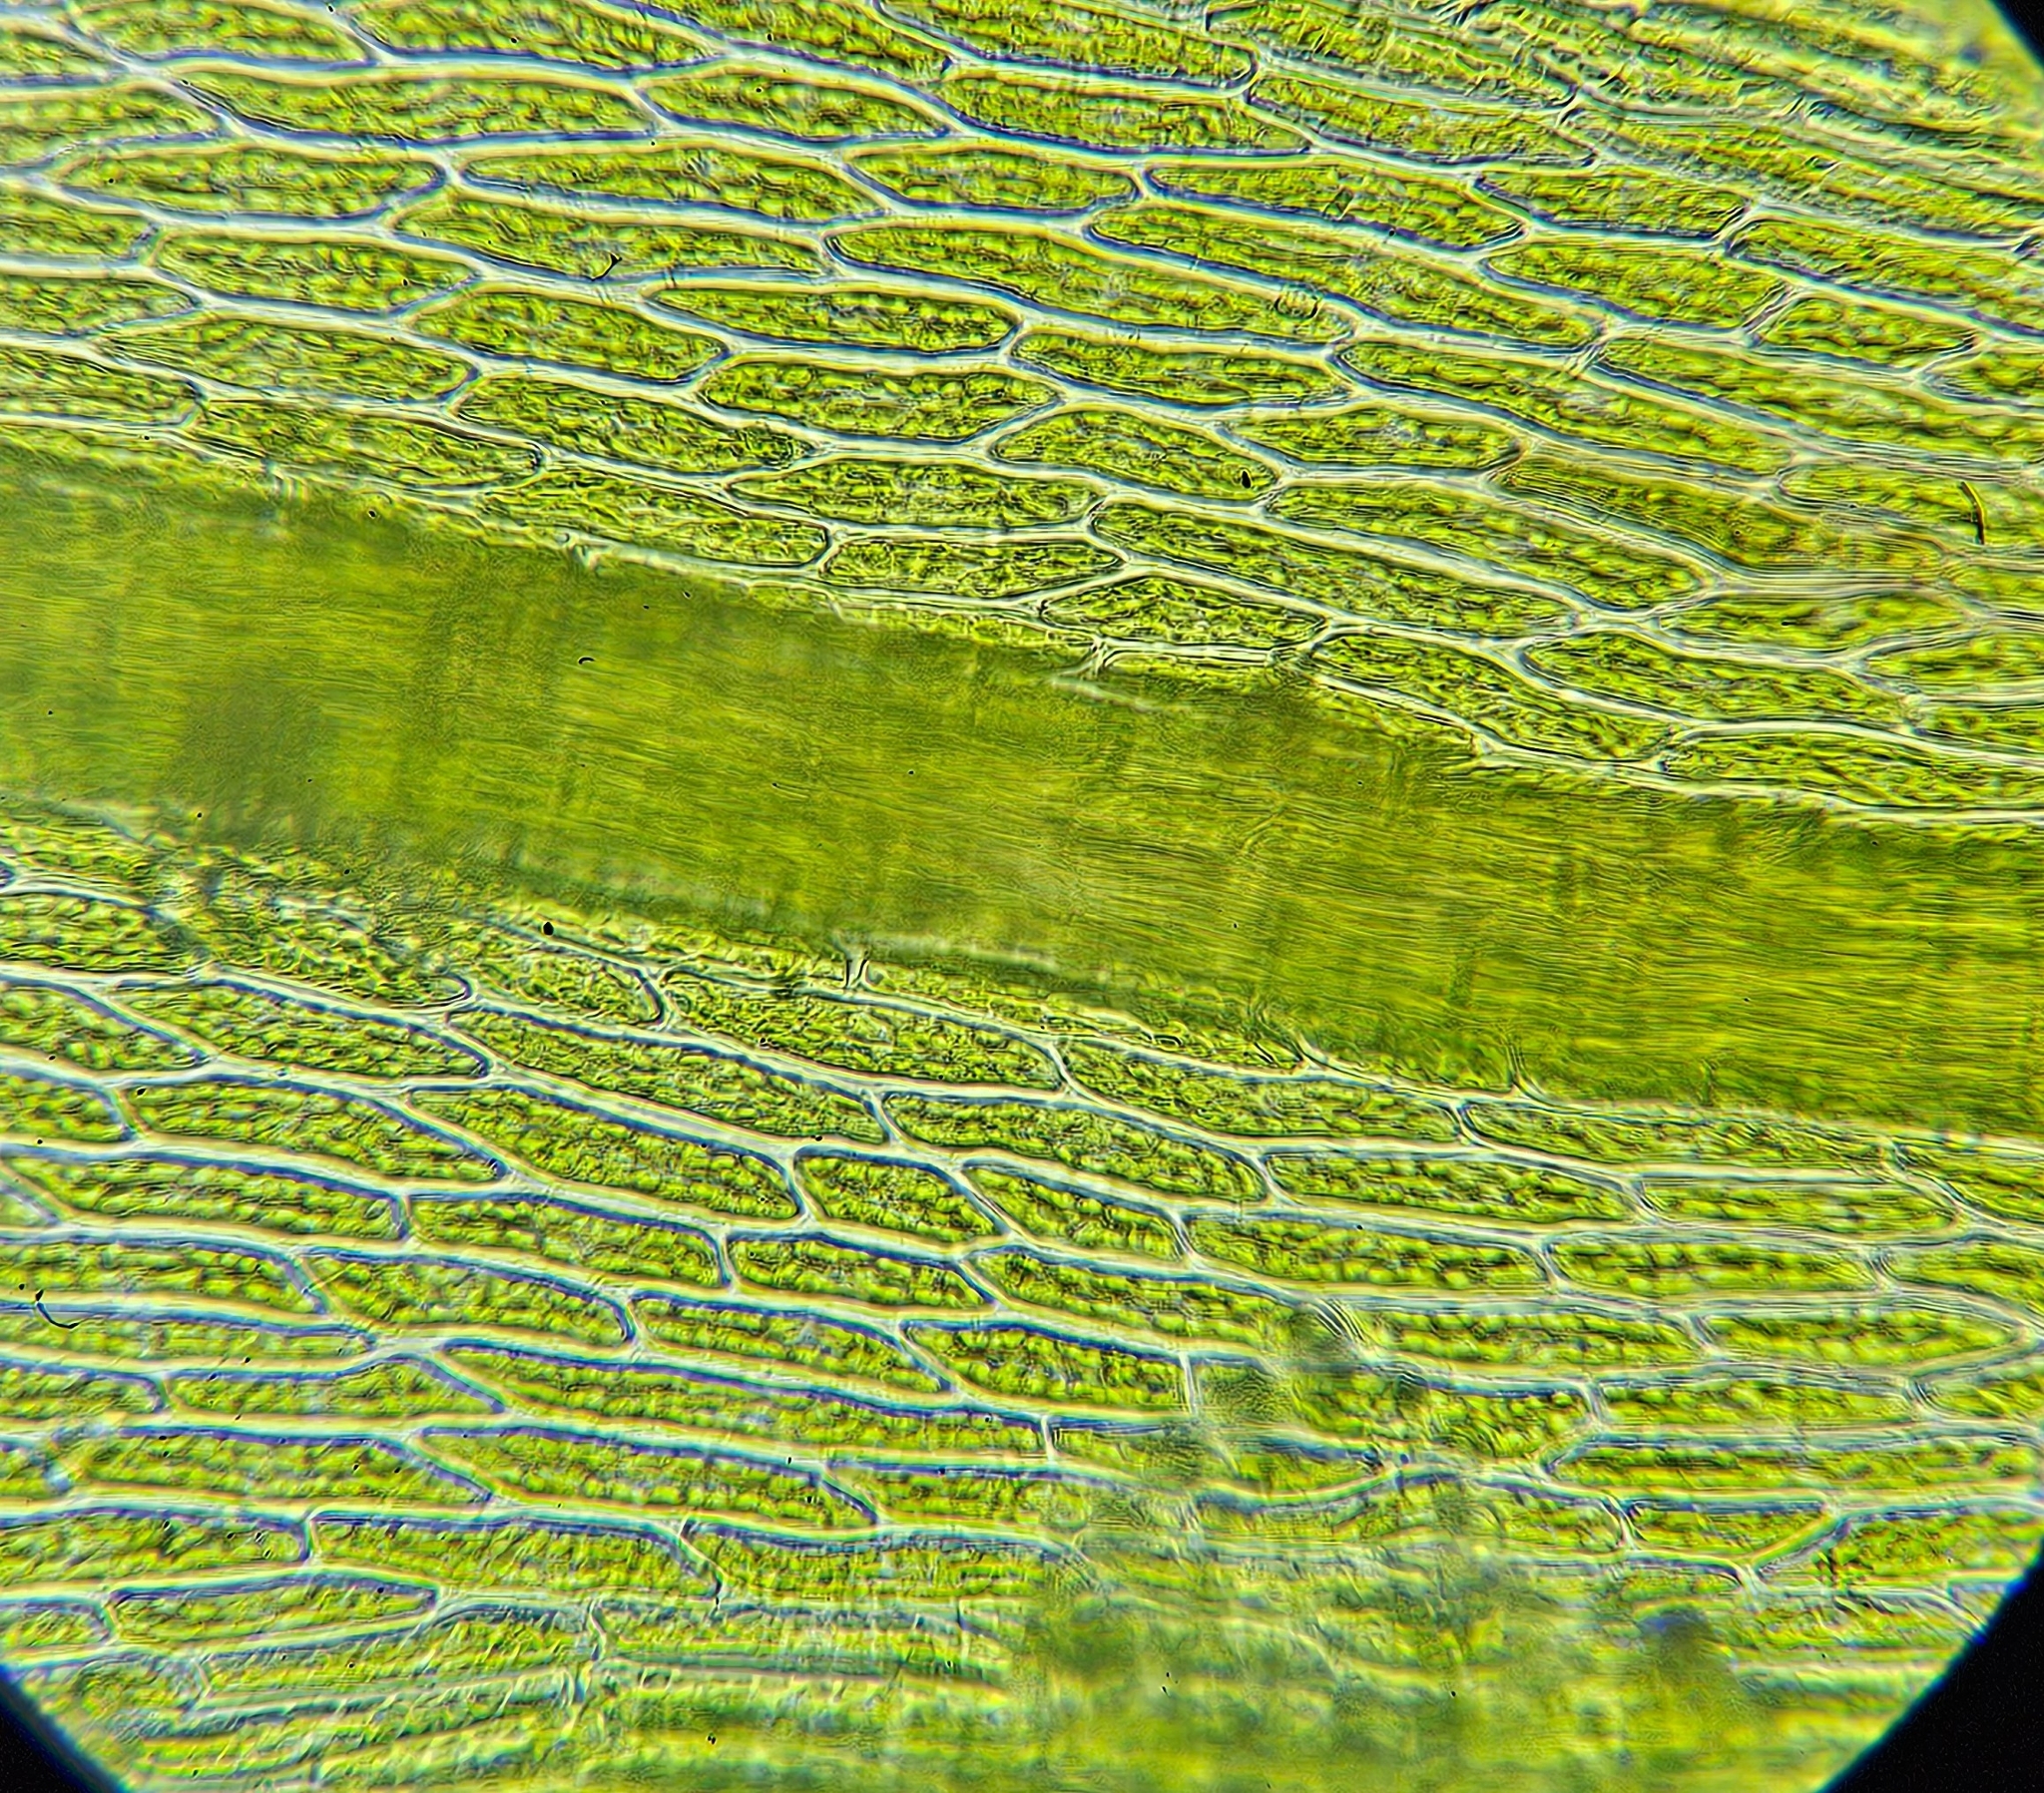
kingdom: Plantae
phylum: Bryophyta
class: Bryopsida
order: Bryales
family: Mniaceae
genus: Pohlia
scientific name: Pohlia nutans
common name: Nodding thread-moss
